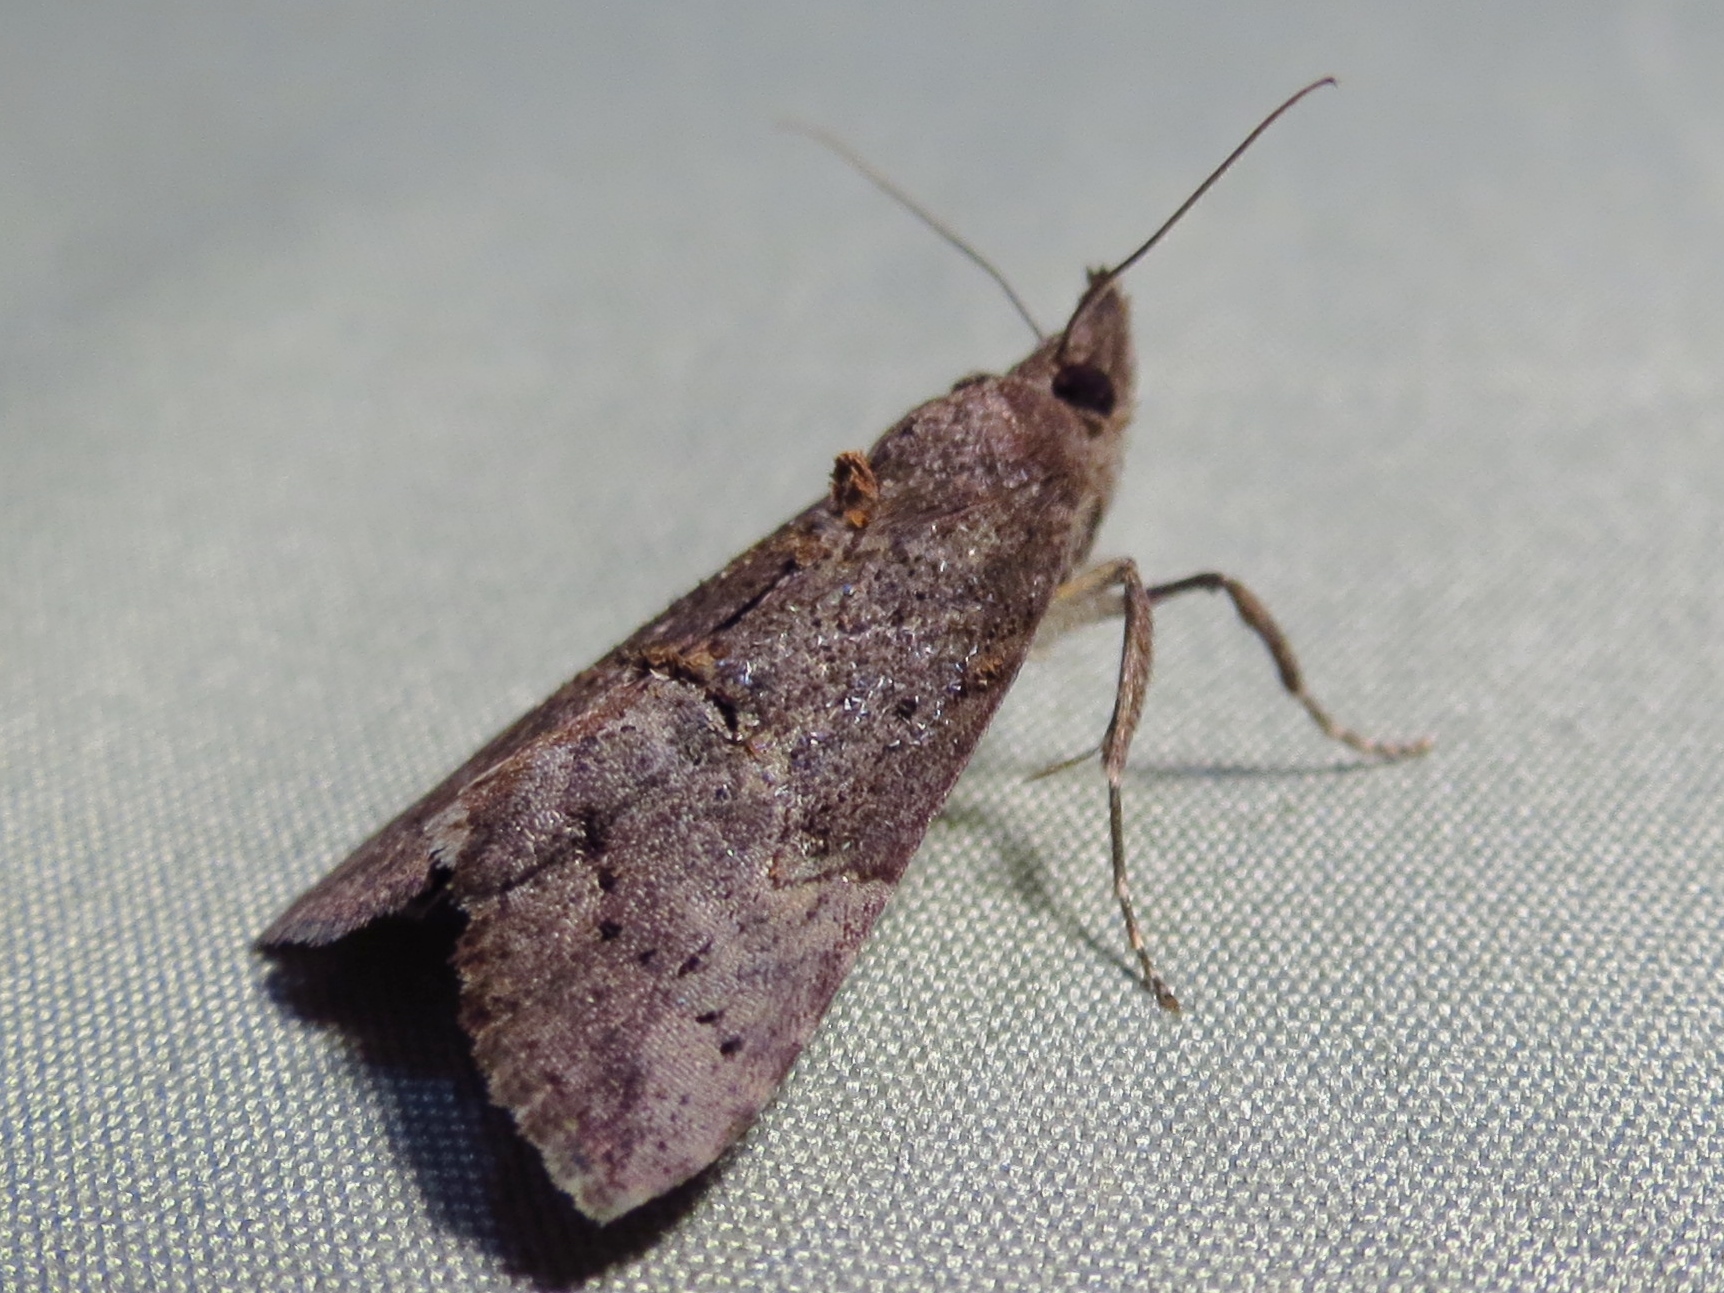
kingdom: Animalia
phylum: Arthropoda
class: Insecta
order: Lepidoptera
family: Erebidae
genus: Hypena
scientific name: Hypena scabra
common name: Green cloverworm
